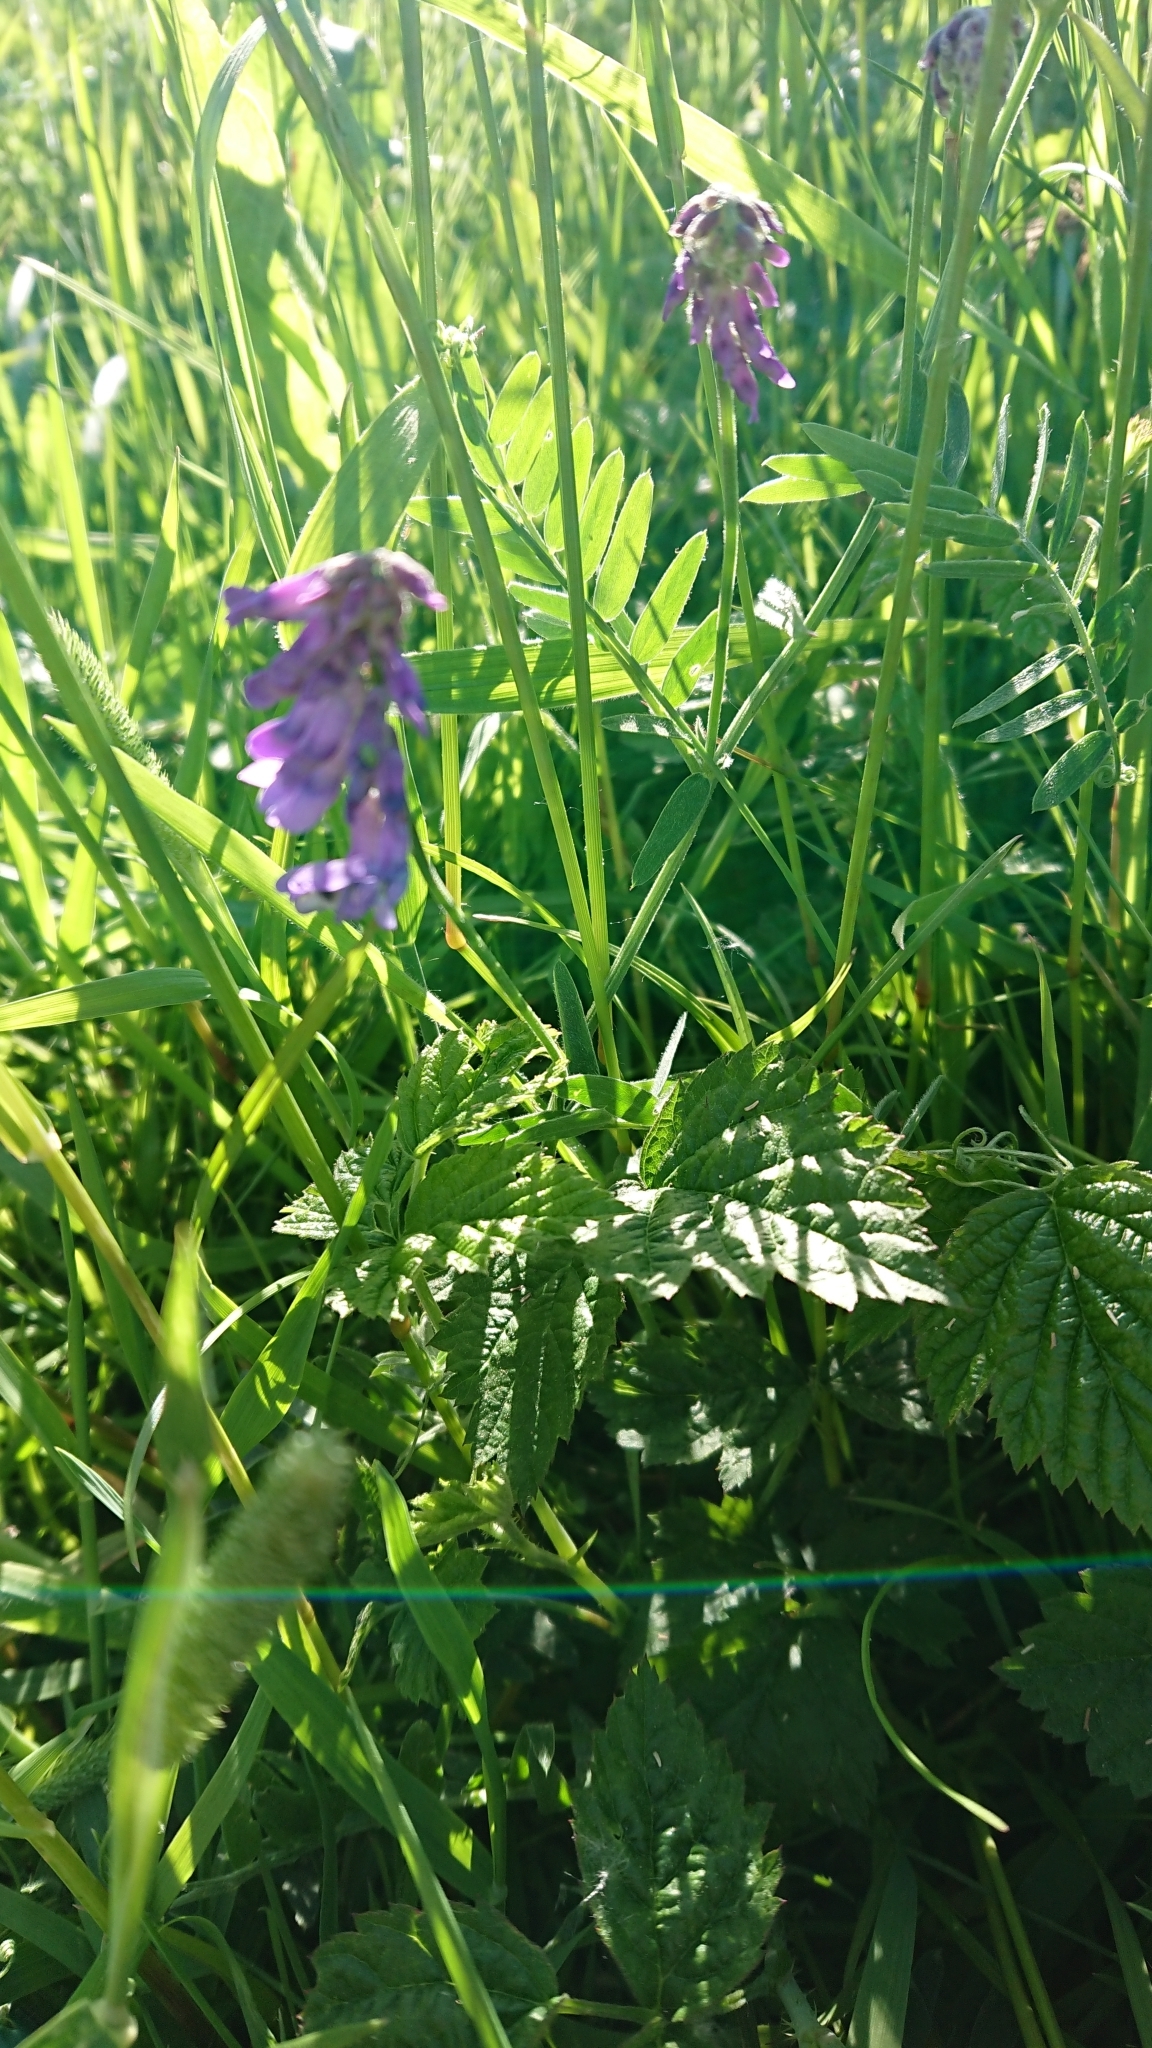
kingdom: Plantae
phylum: Tracheophyta
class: Magnoliopsida
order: Fabales
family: Fabaceae
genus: Vicia
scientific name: Vicia cracca
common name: Bird vetch
